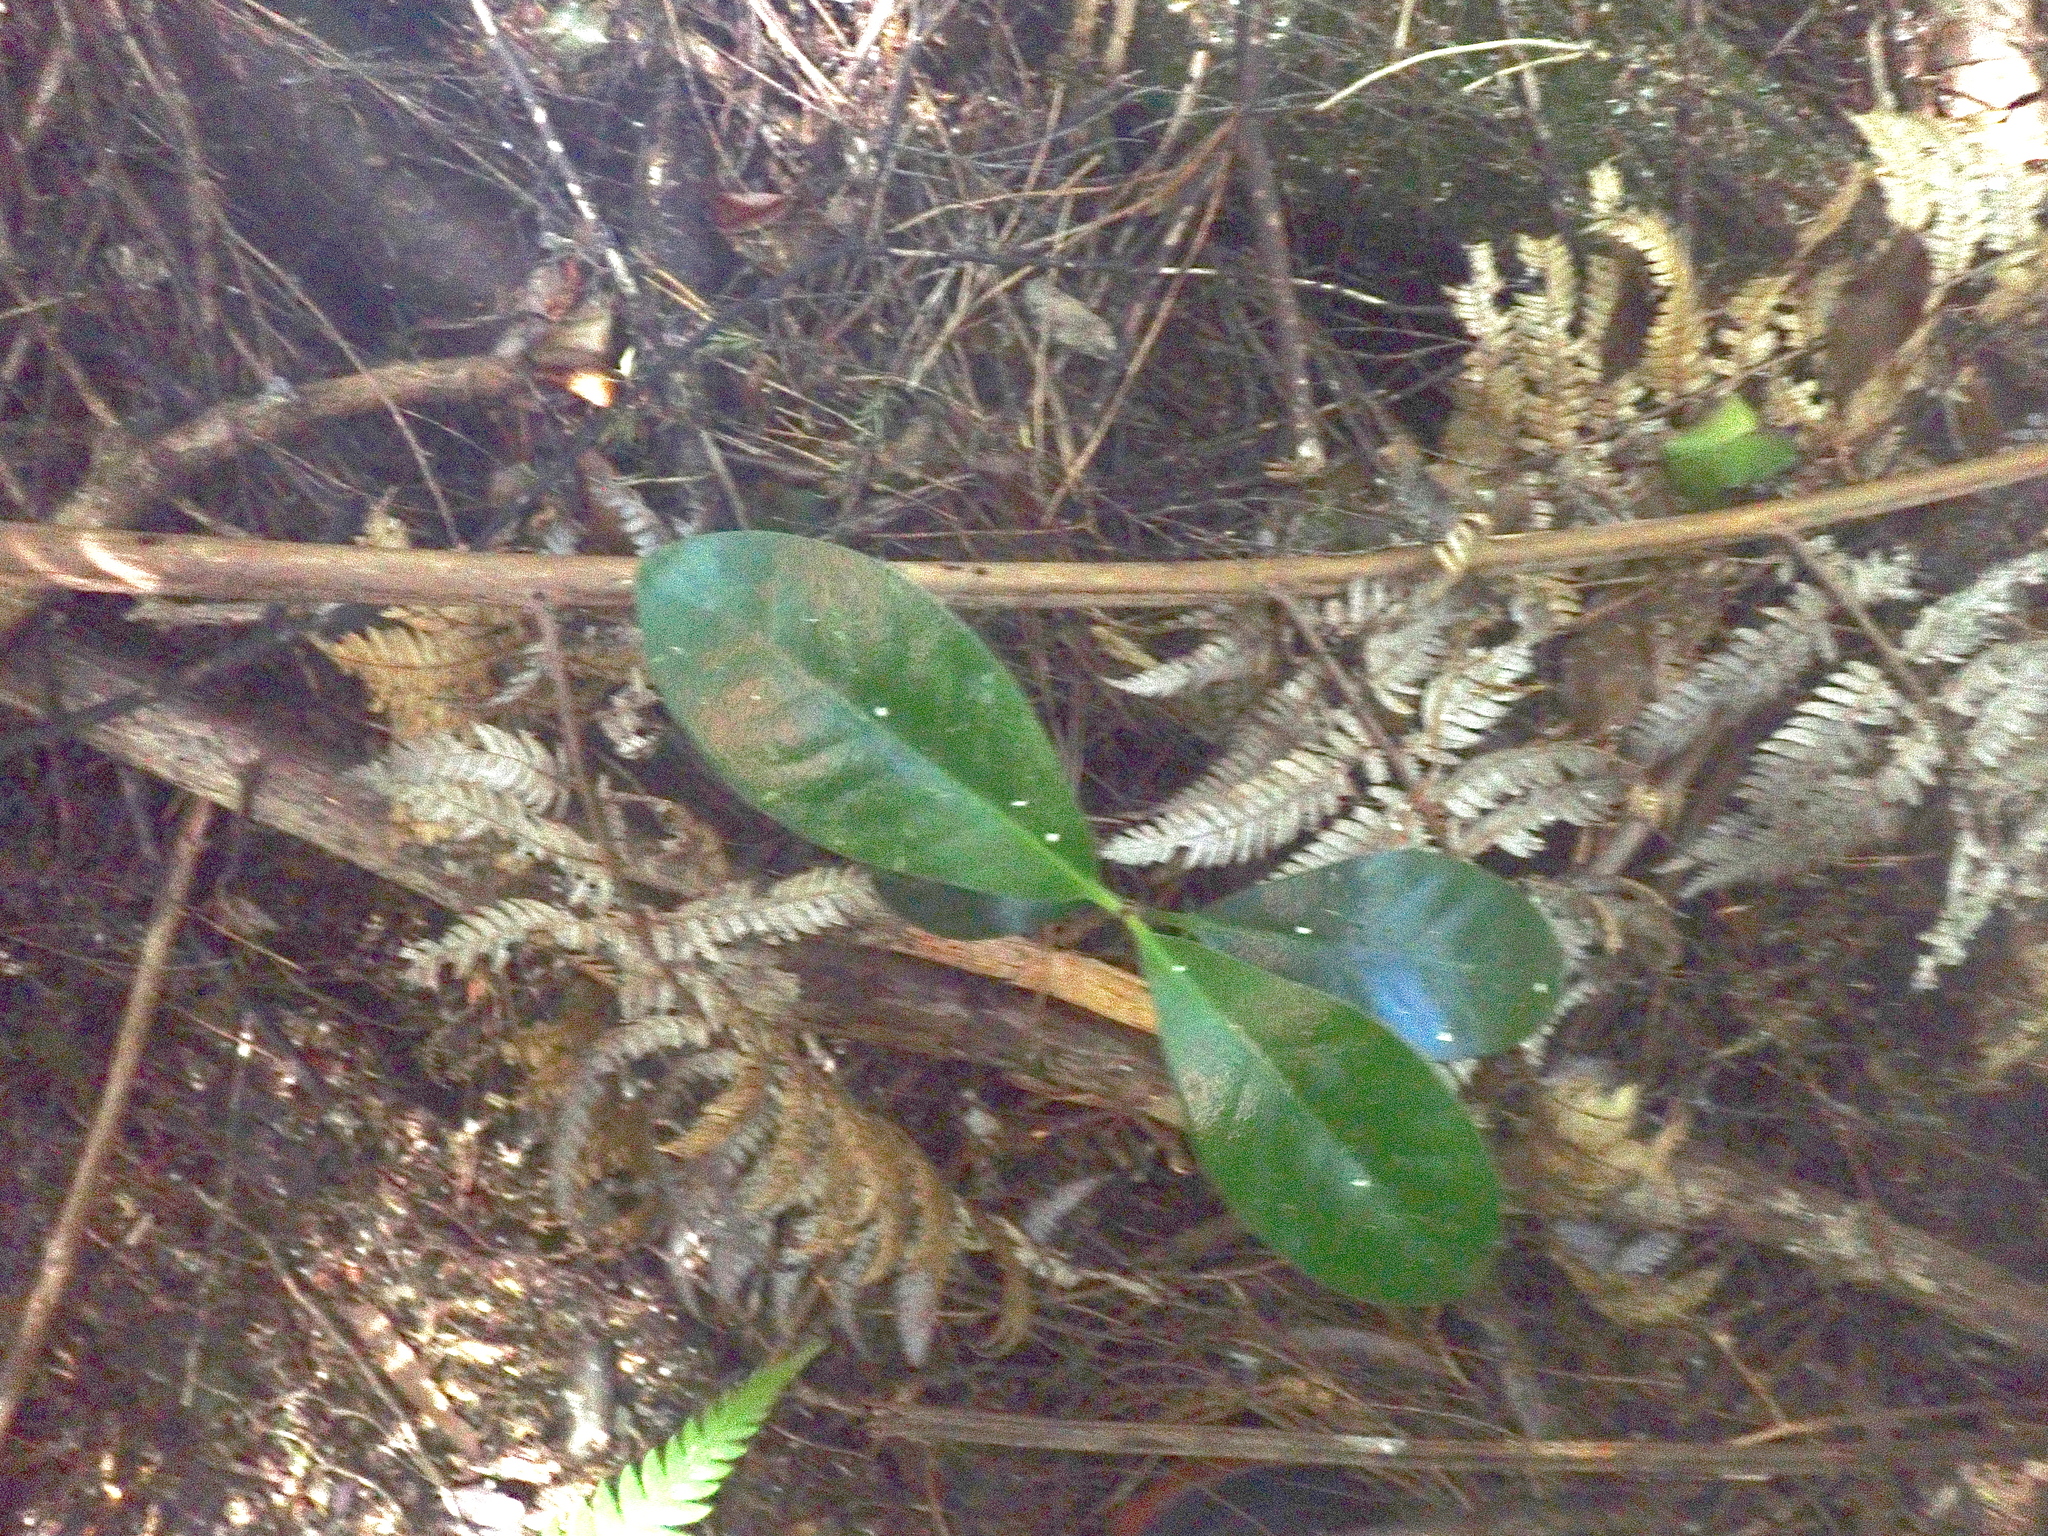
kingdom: Plantae
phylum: Tracheophyta
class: Magnoliopsida
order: Cucurbitales
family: Corynocarpaceae
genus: Corynocarpus
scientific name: Corynocarpus laevigatus
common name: New zealand laurel
